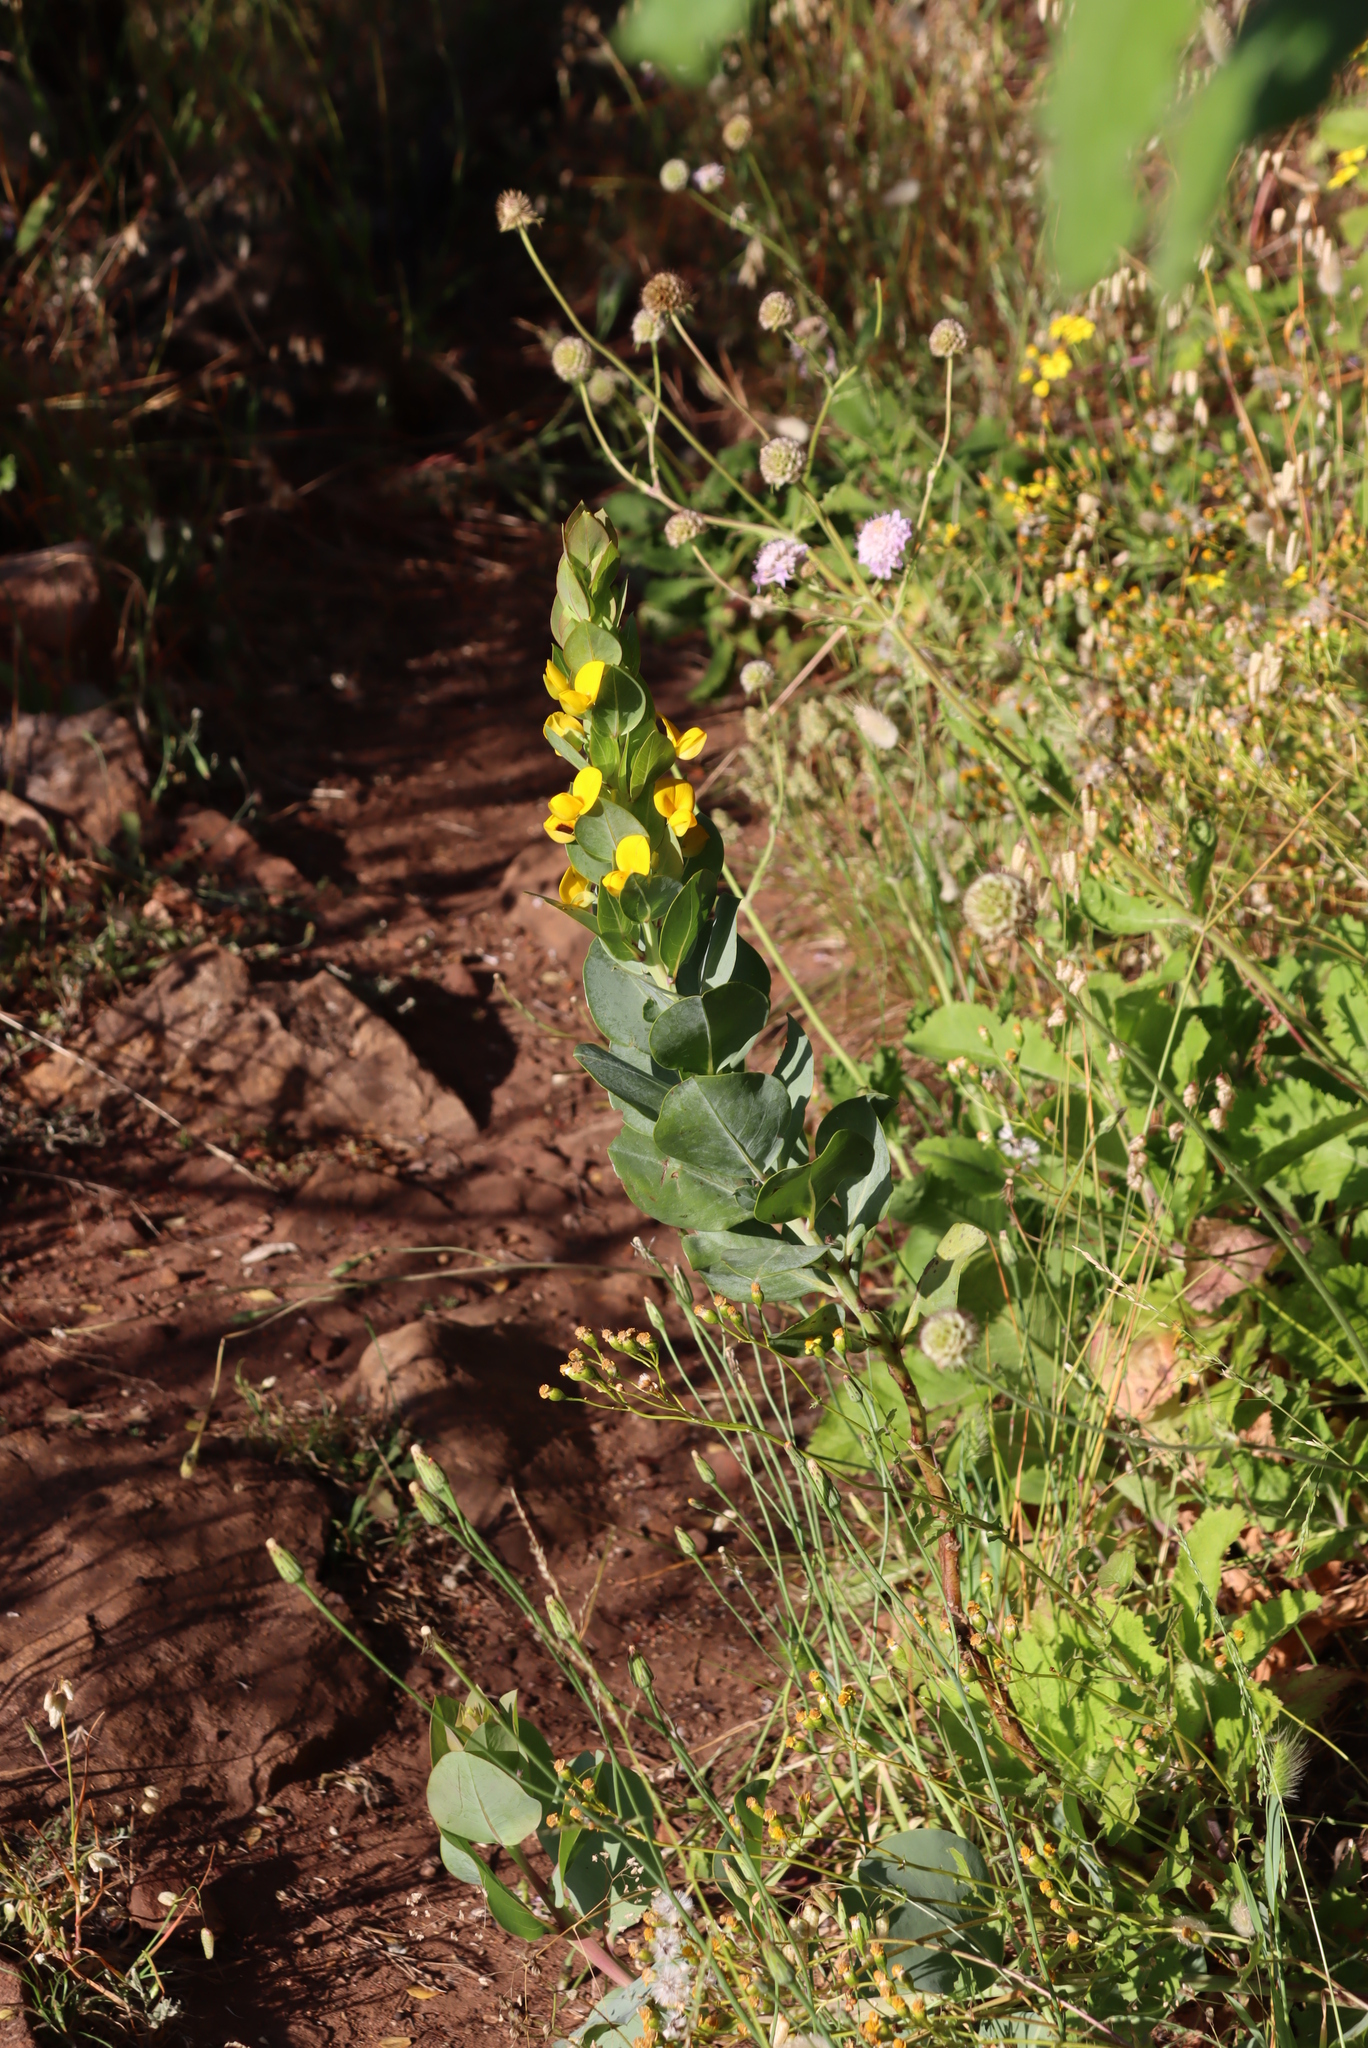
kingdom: Plantae
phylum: Tracheophyta
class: Magnoliopsida
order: Fabales
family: Fabaceae
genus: Rafnia
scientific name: Rafnia triflora
